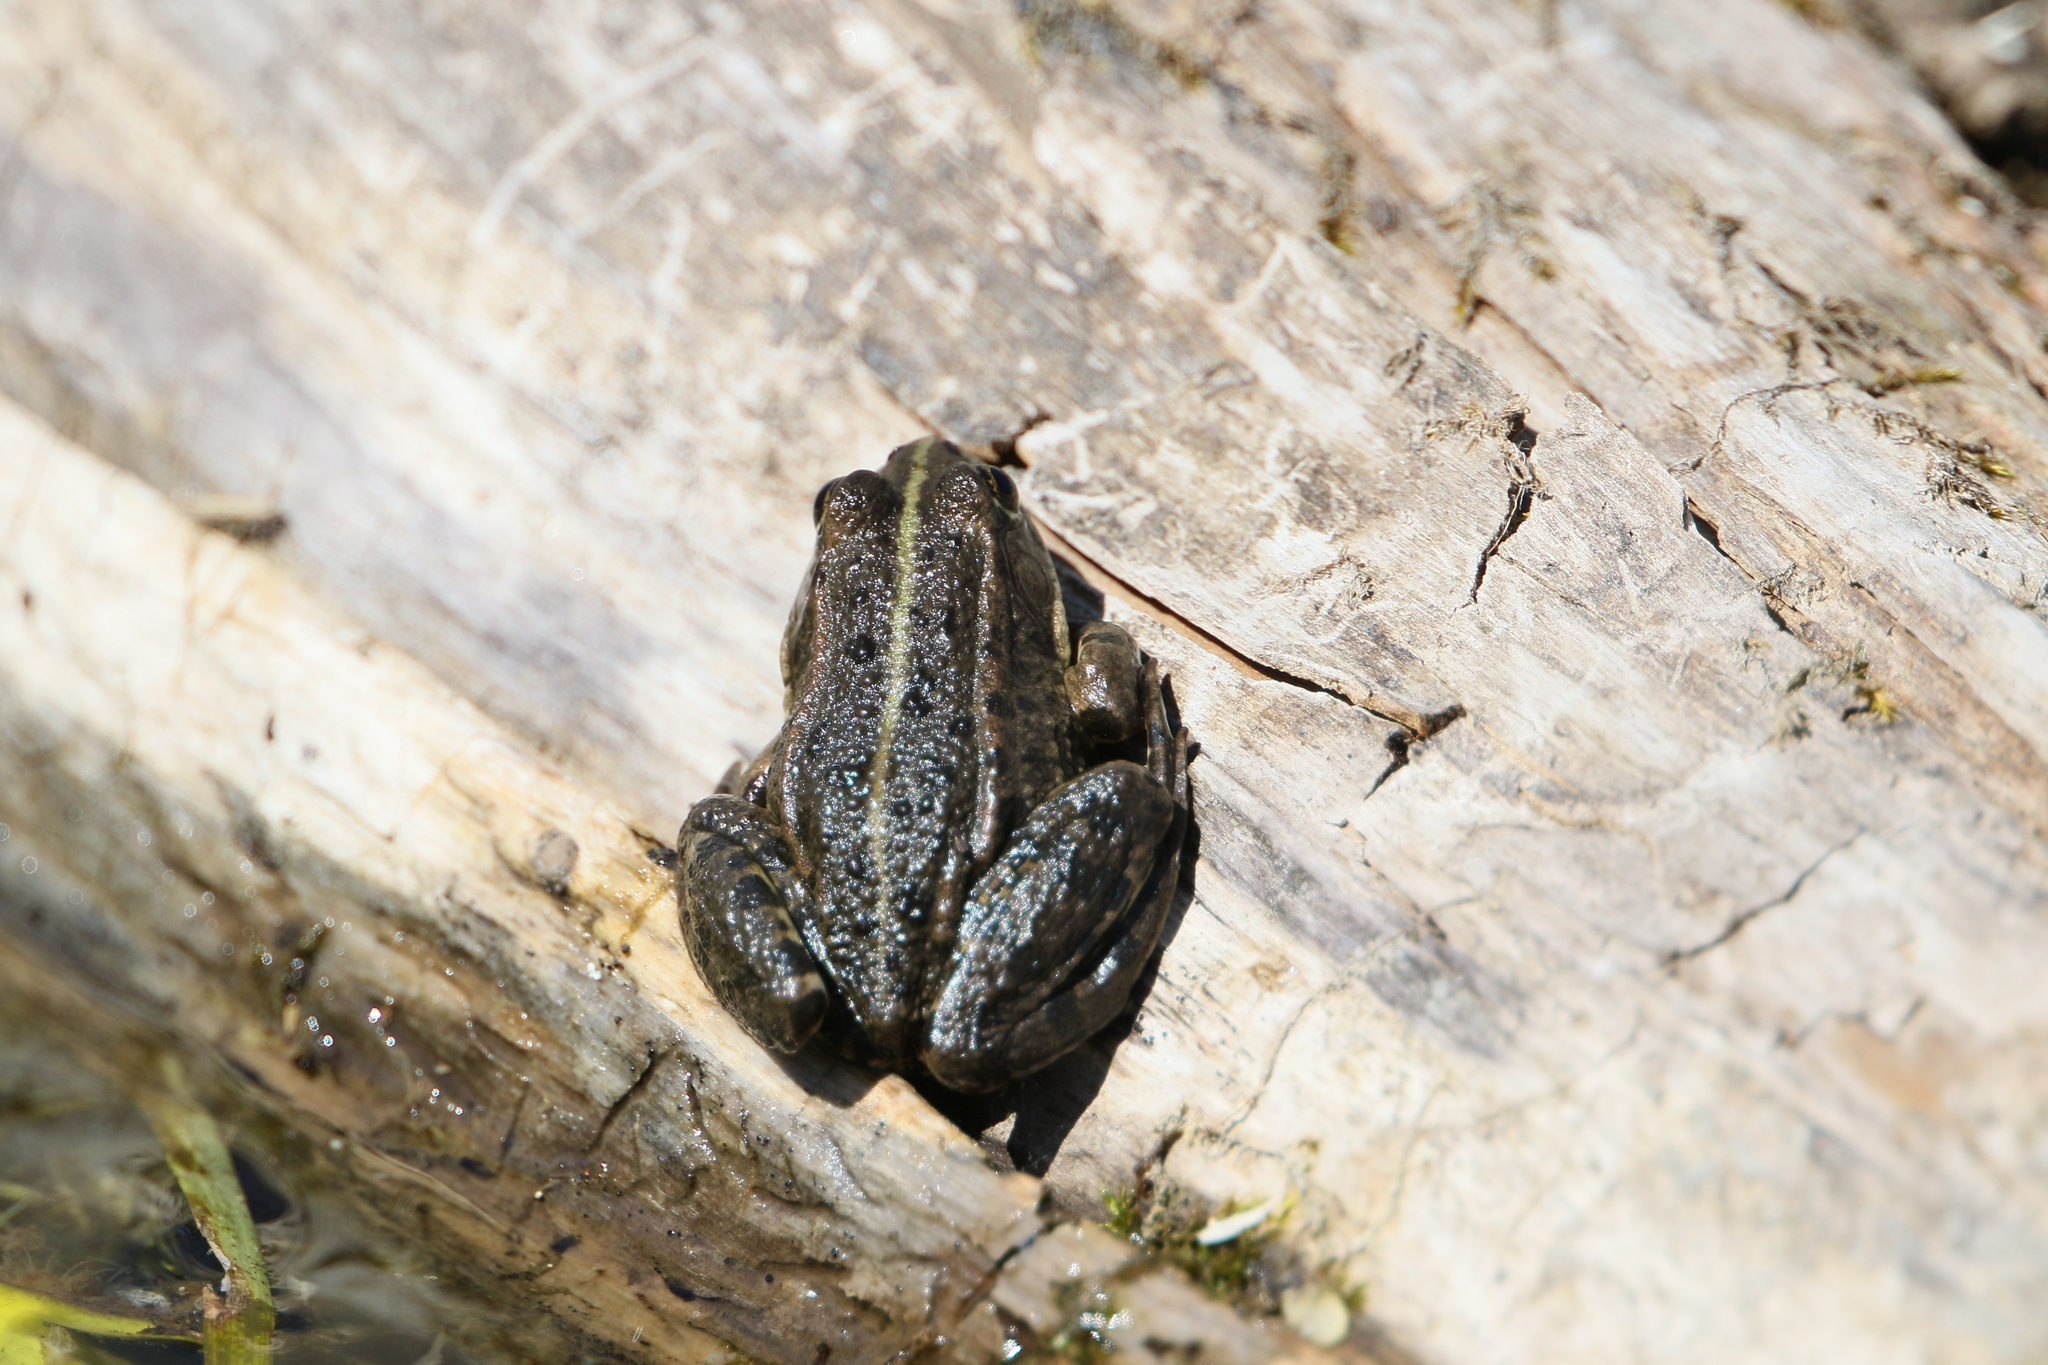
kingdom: Animalia
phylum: Chordata
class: Amphibia
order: Anura
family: Ranidae
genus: Pelophylax
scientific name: Pelophylax
